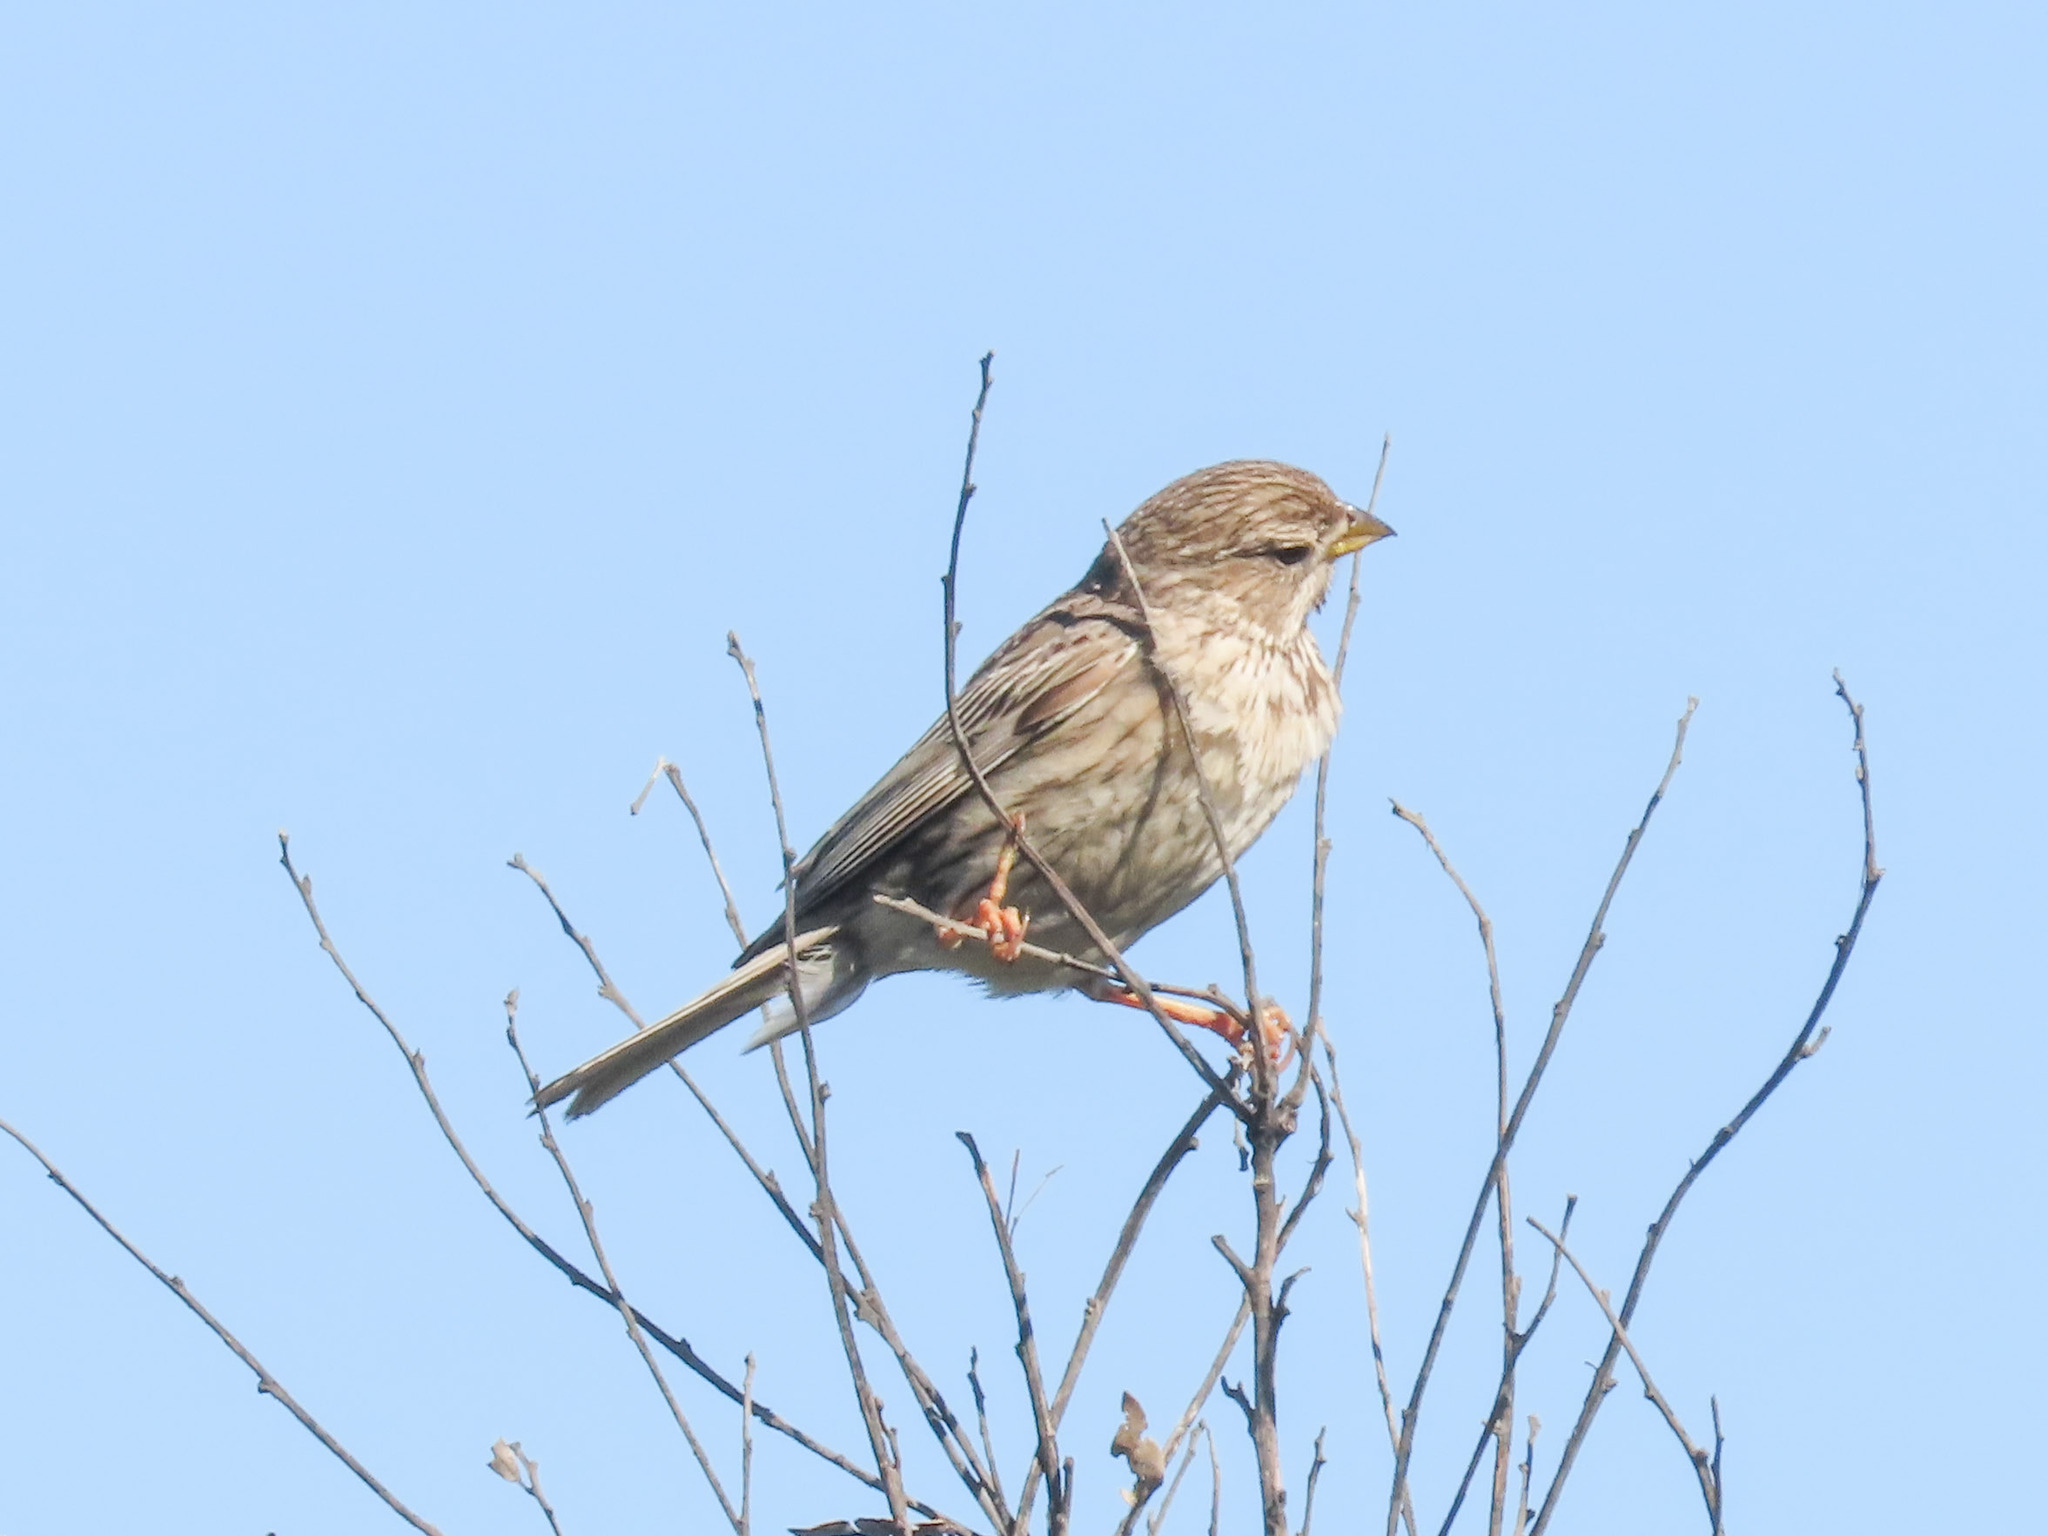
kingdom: Animalia
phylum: Chordata
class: Aves
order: Passeriformes
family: Emberizidae
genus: Emberiza
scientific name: Emberiza calandra
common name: Corn bunting
